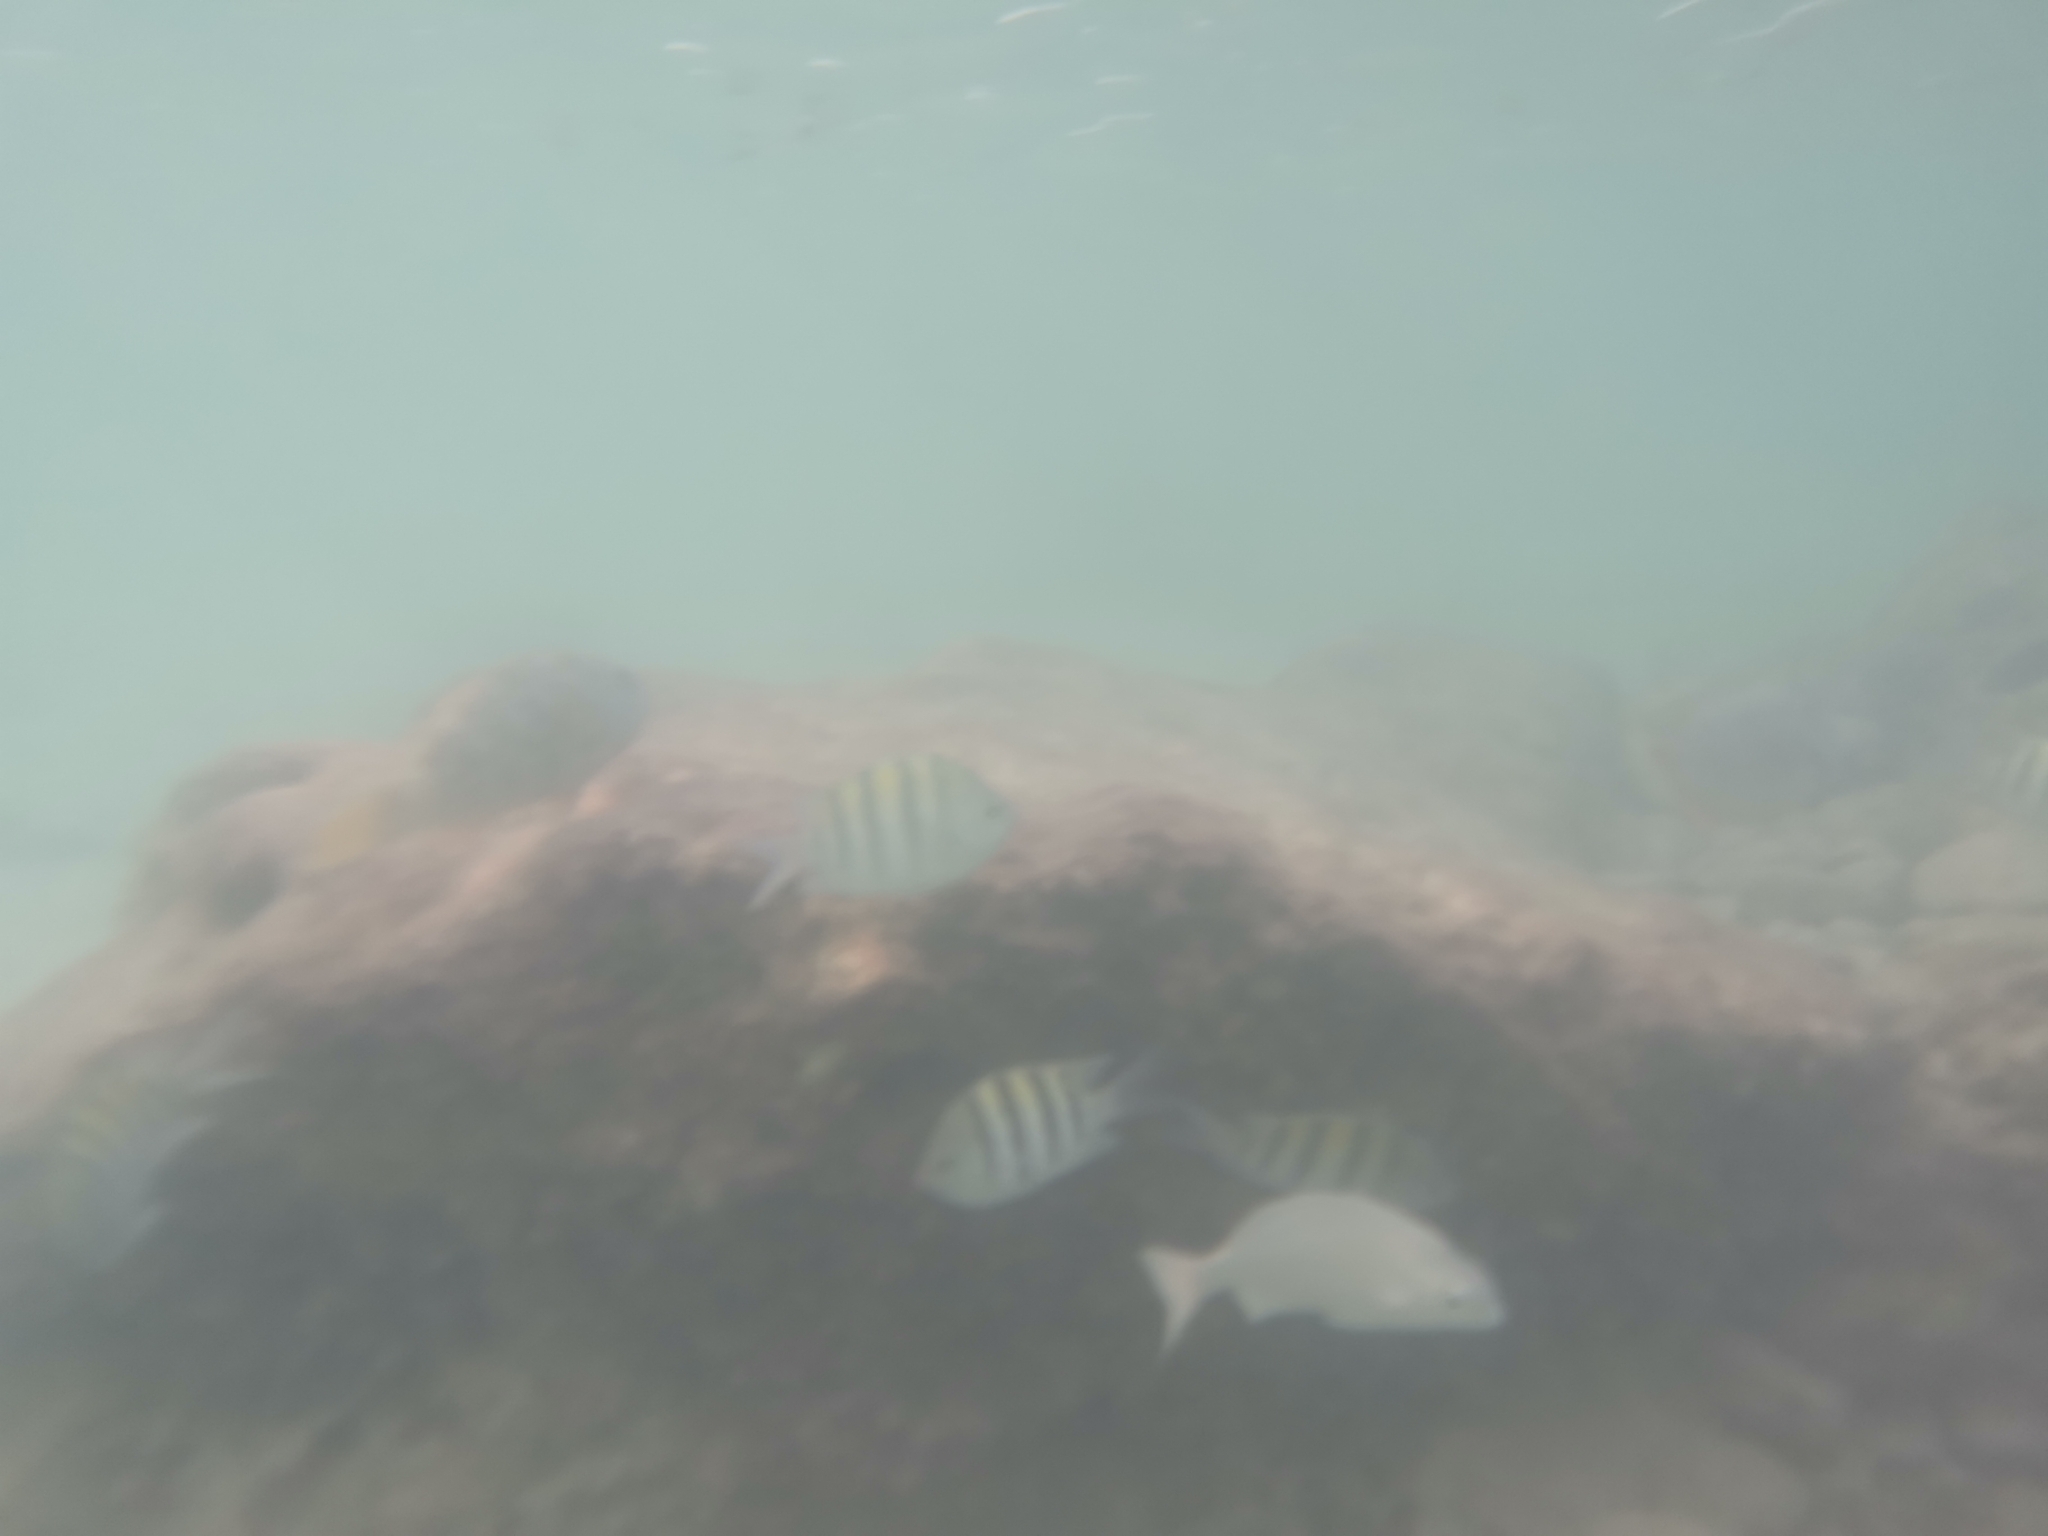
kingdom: Animalia
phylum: Chordata
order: Perciformes
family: Pomacentridae
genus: Abudefduf
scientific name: Abudefduf saxatilis
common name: Sergeant major
